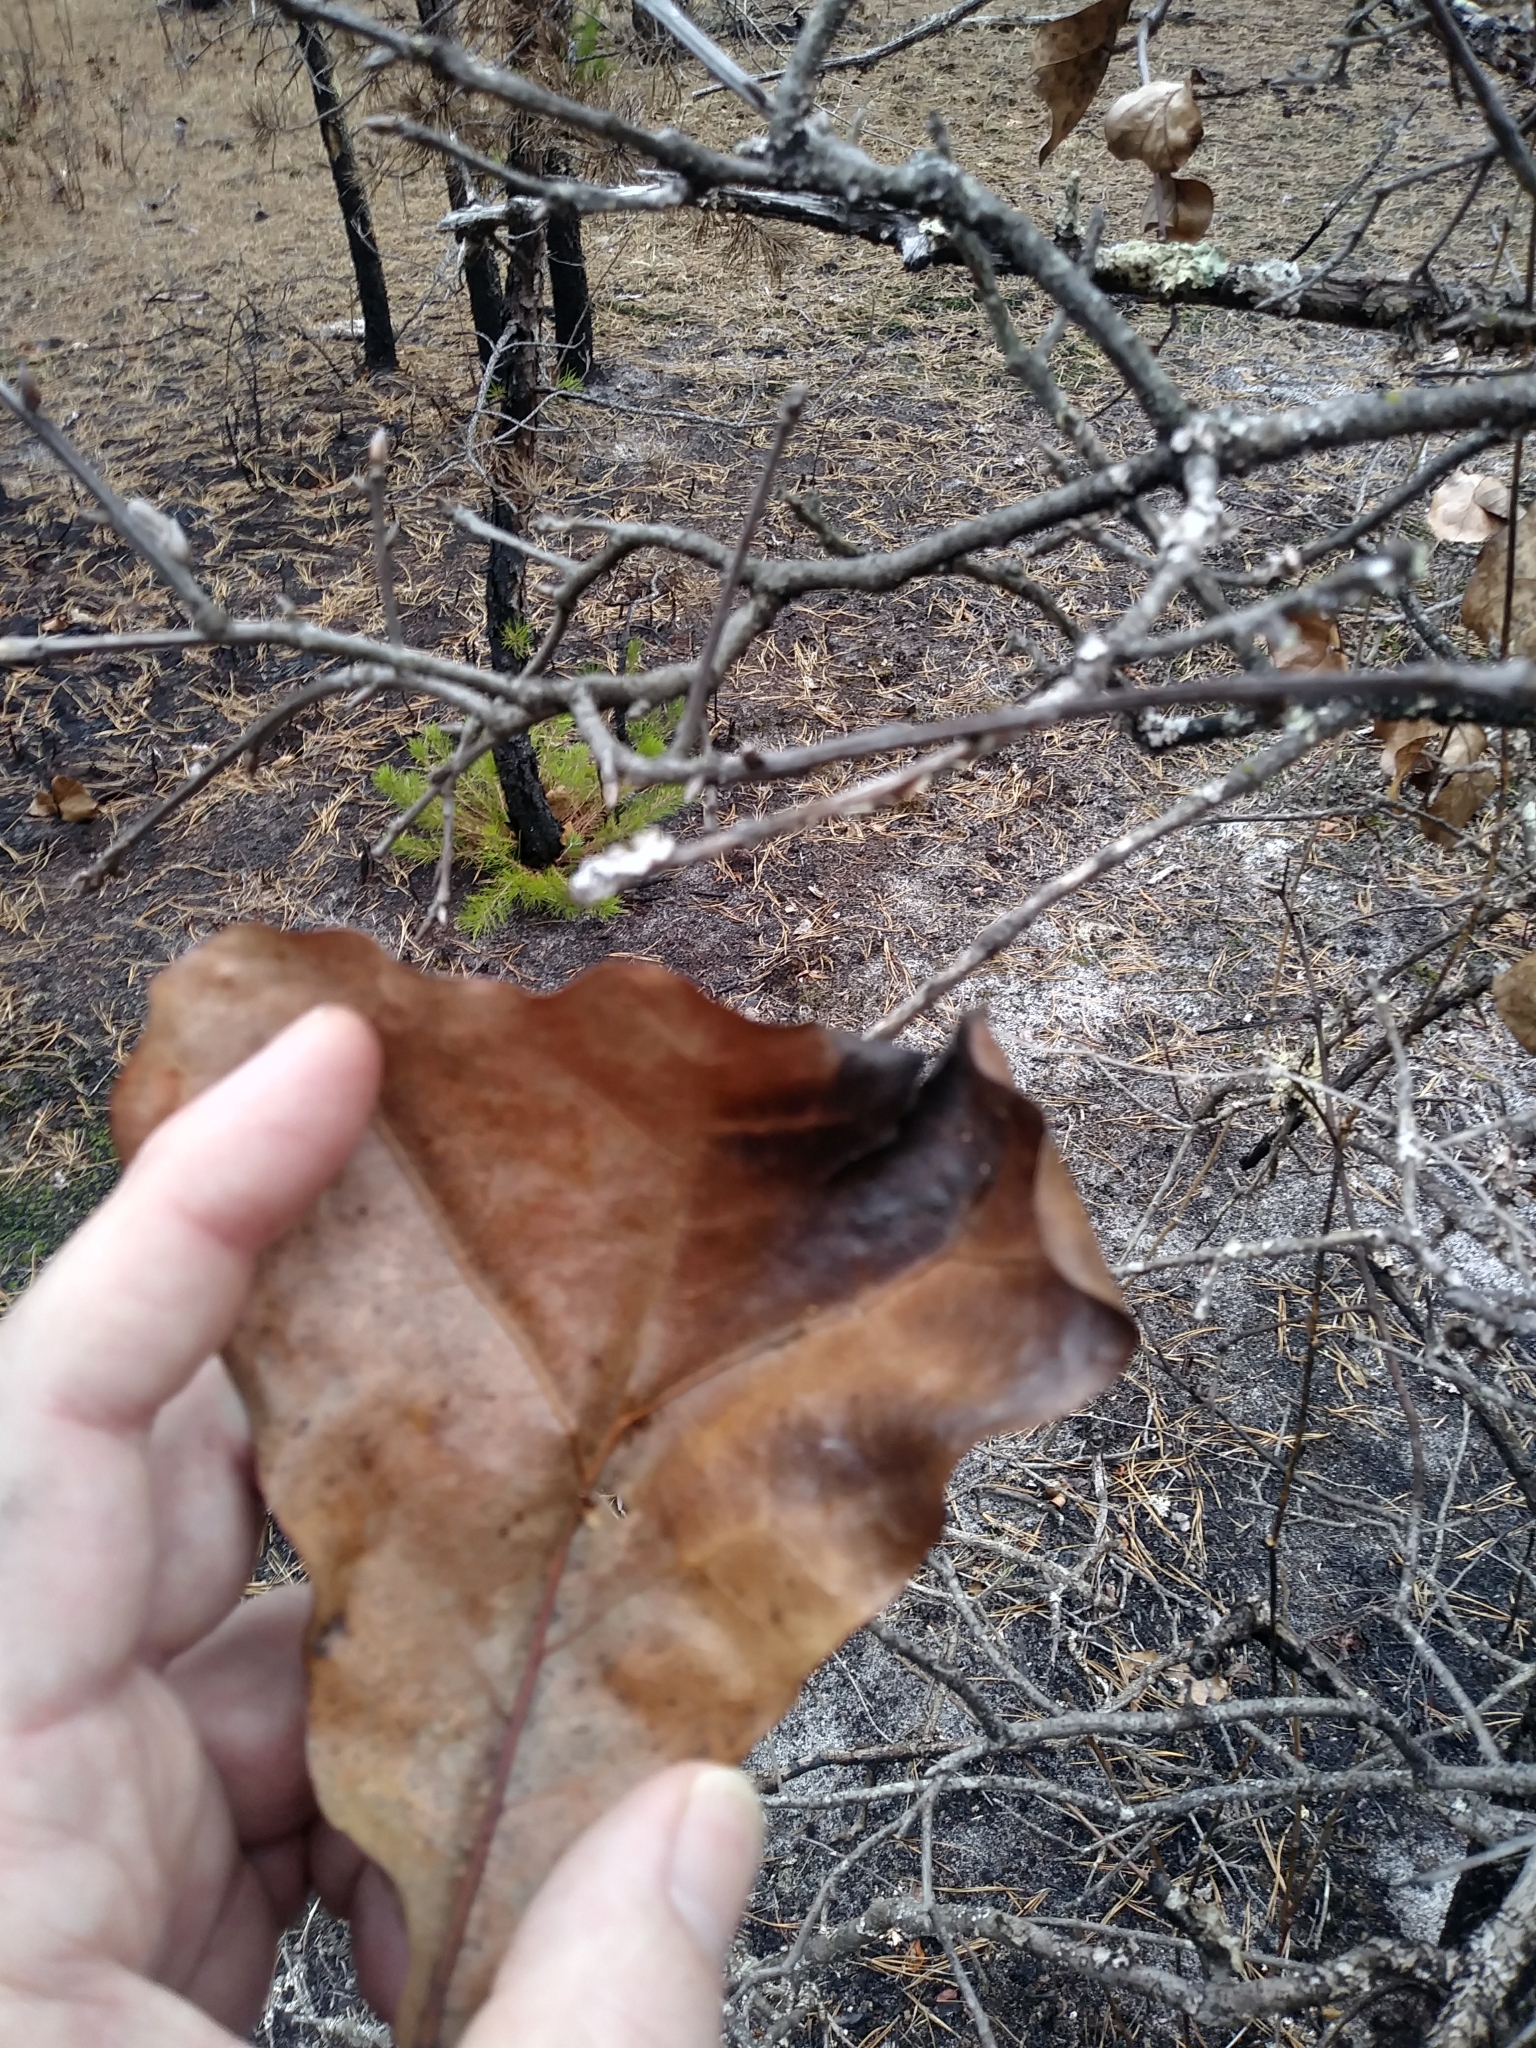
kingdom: Plantae
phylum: Tracheophyta
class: Magnoliopsida
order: Fagales
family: Fagaceae
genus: Quercus
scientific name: Quercus marilandica
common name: Blackjack oak
